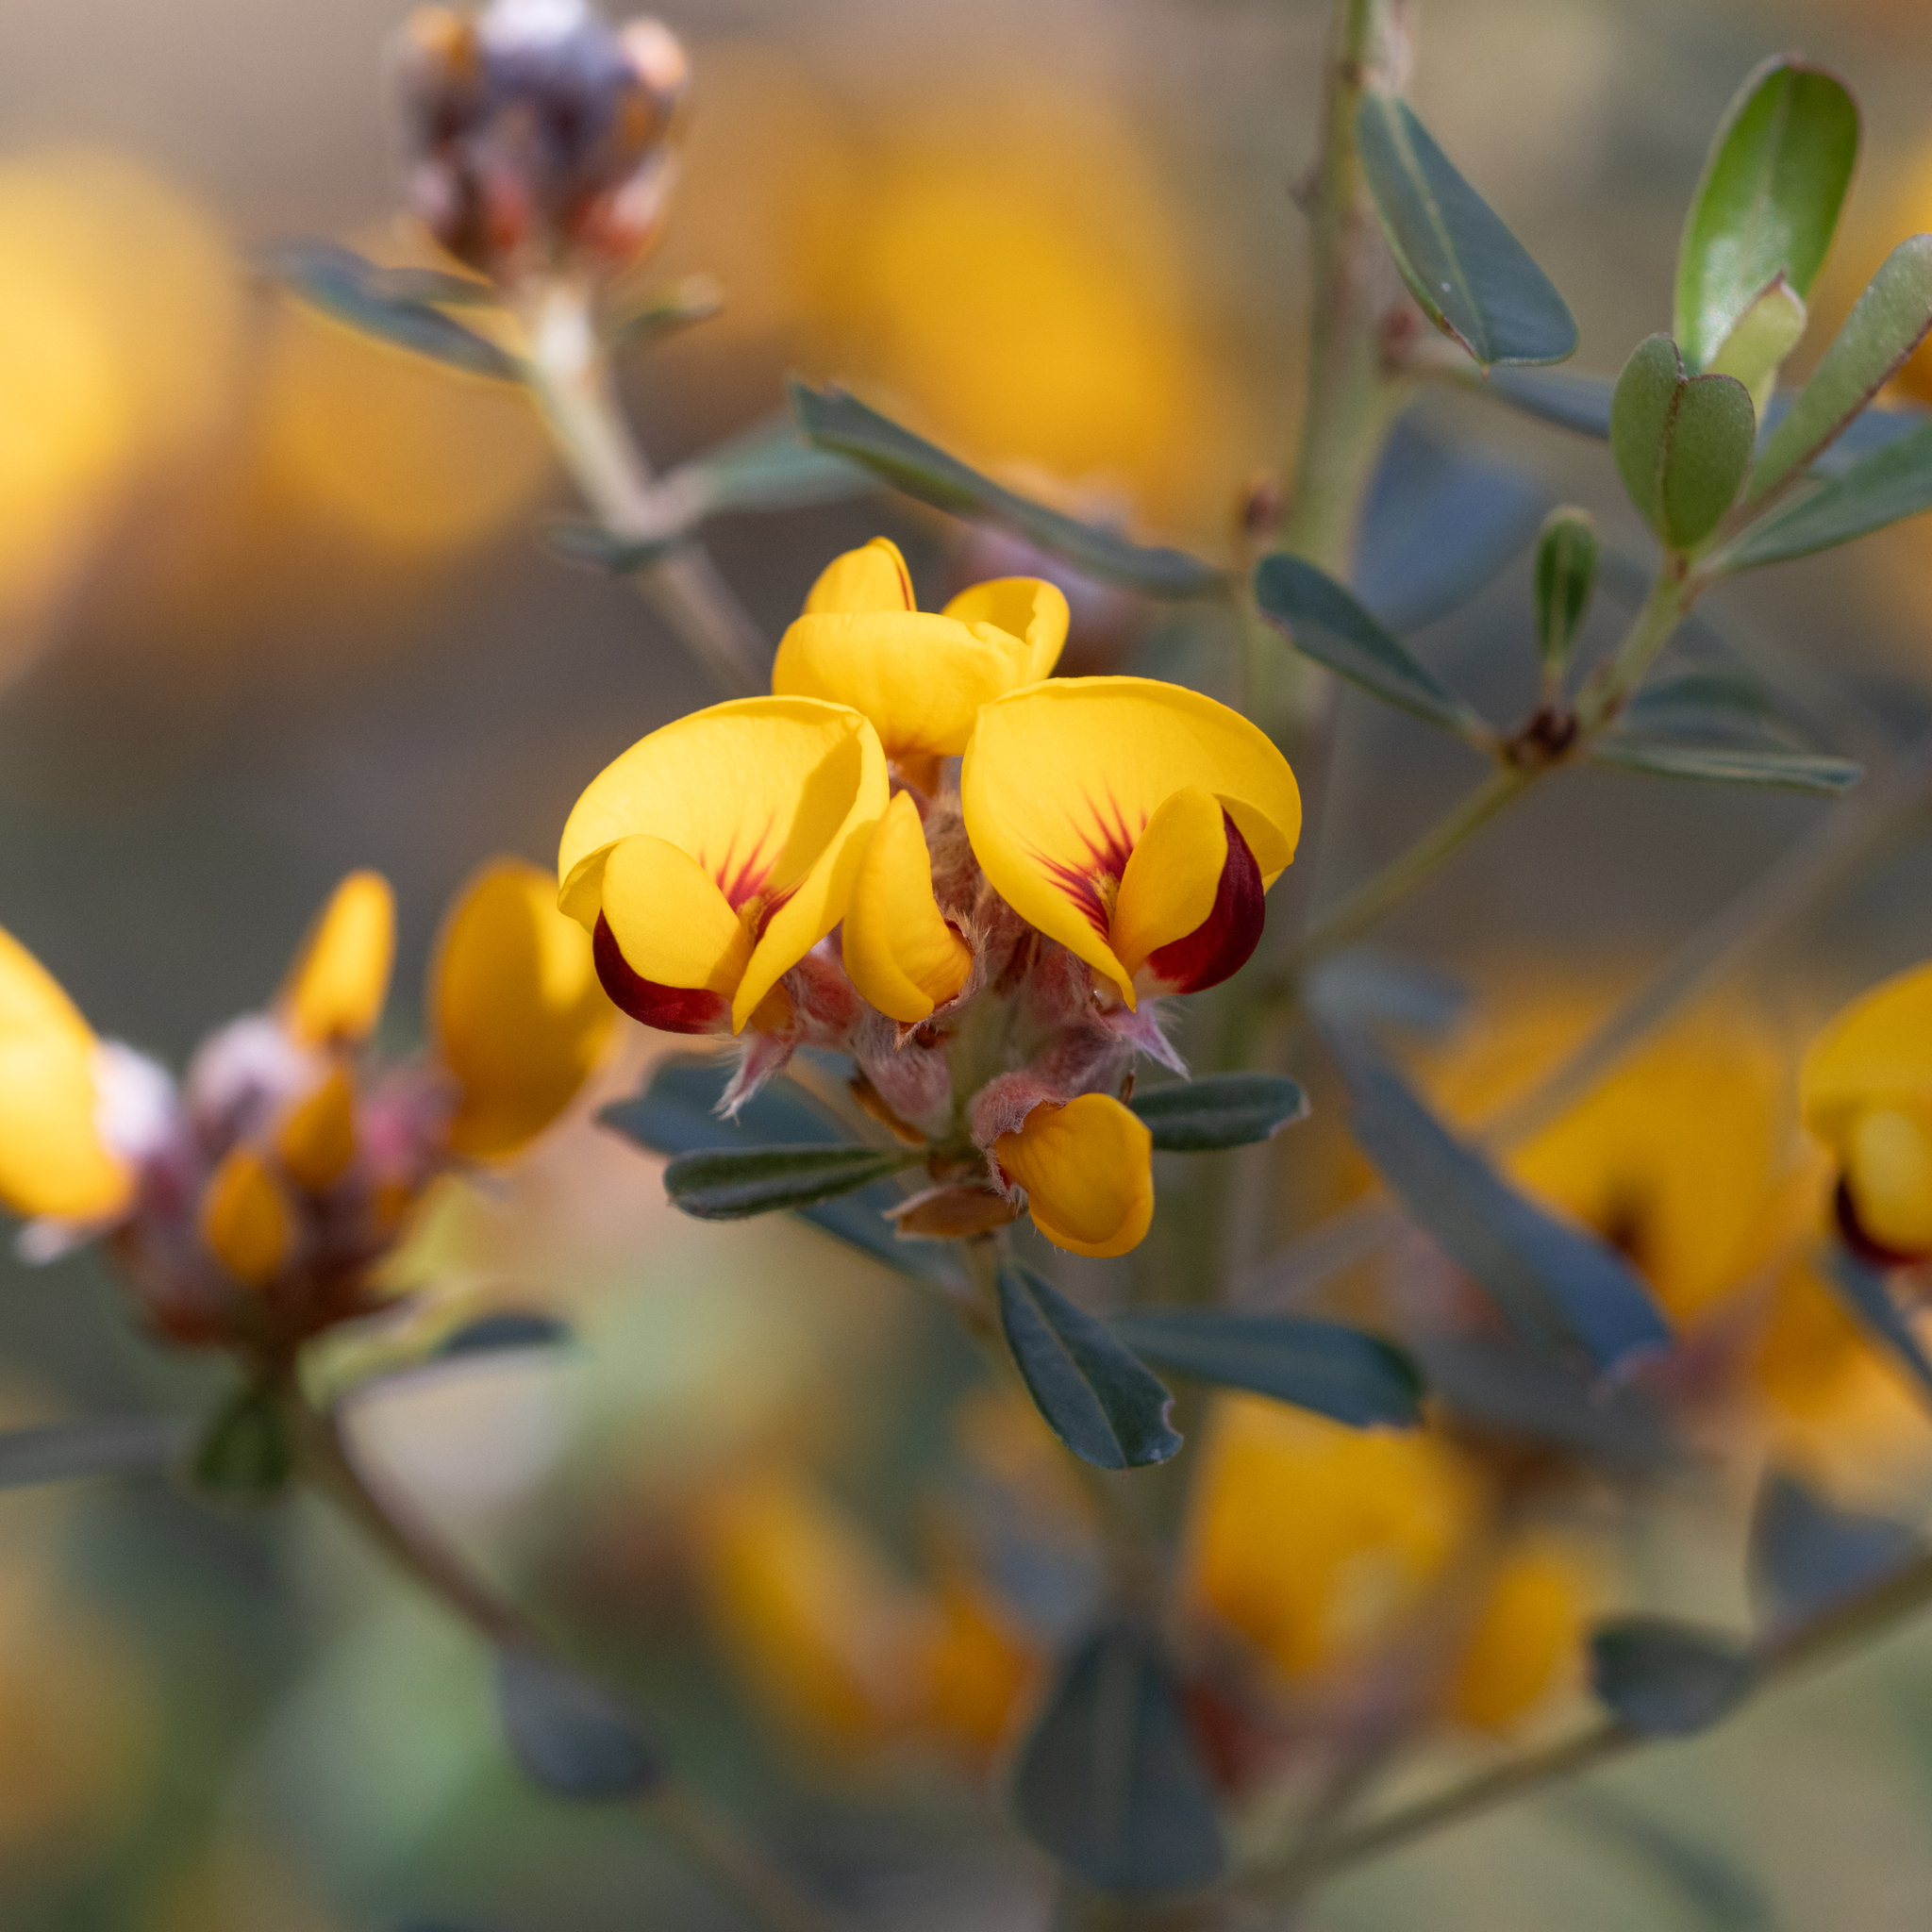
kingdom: Plantae
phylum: Tracheophyta
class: Magnoliopsida
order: Fabales
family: Fabaceae
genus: Pultenaea
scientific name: Pultenaea daphnoides
